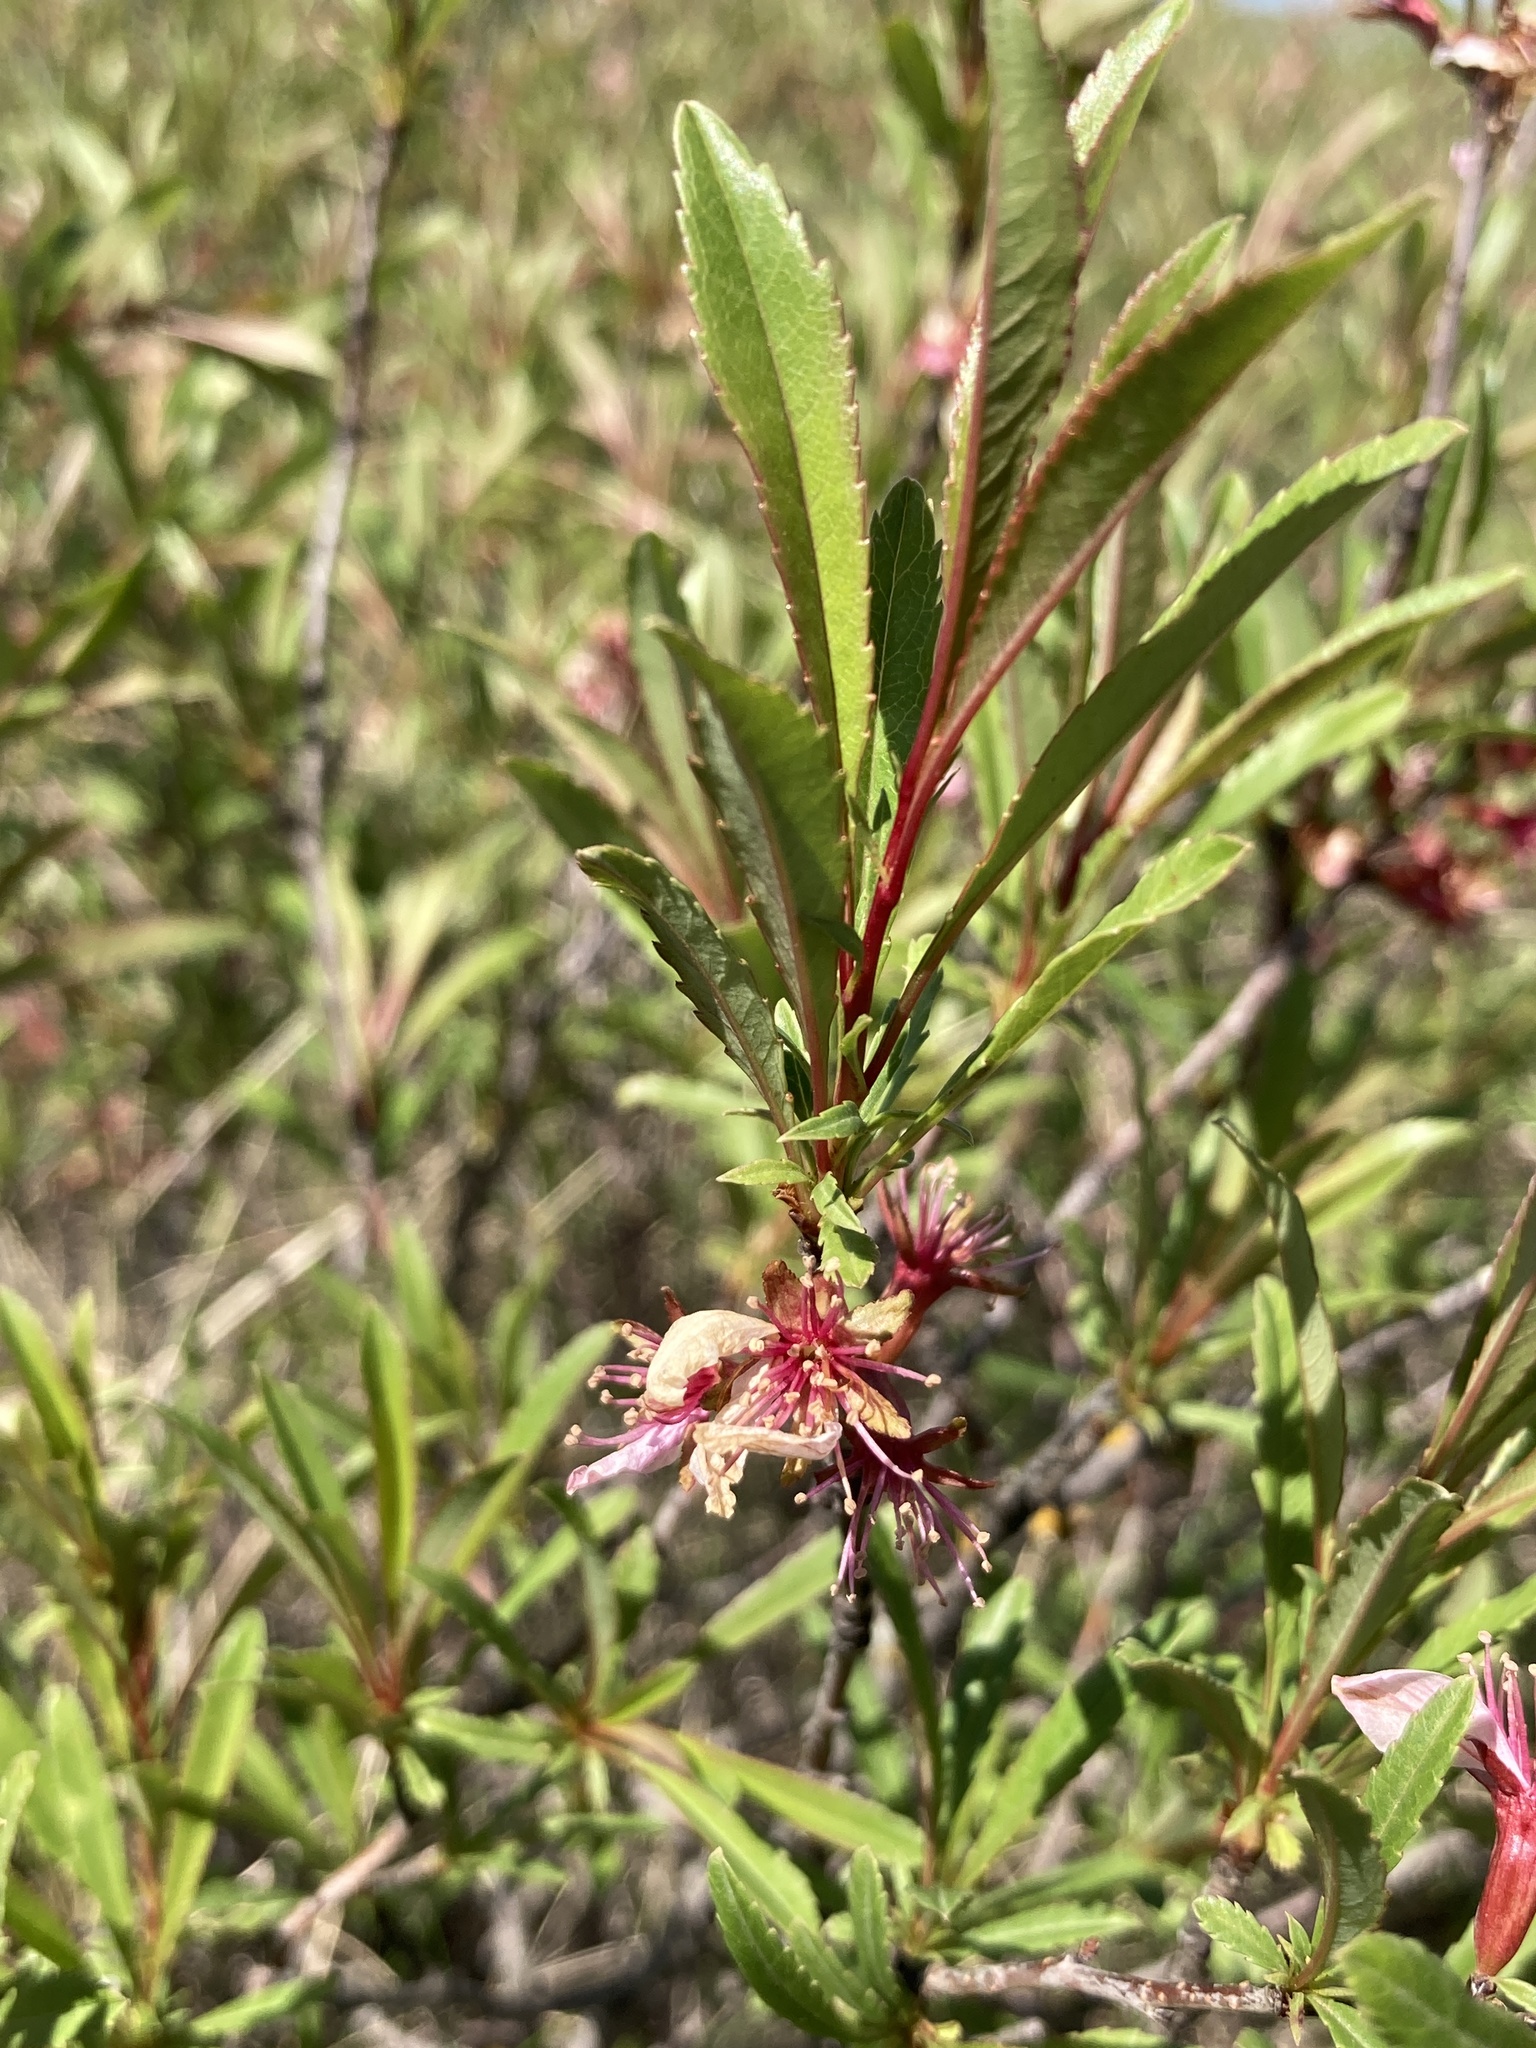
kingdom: Plantae
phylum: Tracheophyta
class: Magnoliopsida
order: Rosales
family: Rosaceae
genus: Prunus
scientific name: Prunus tenella
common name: Dwarf russian almond
